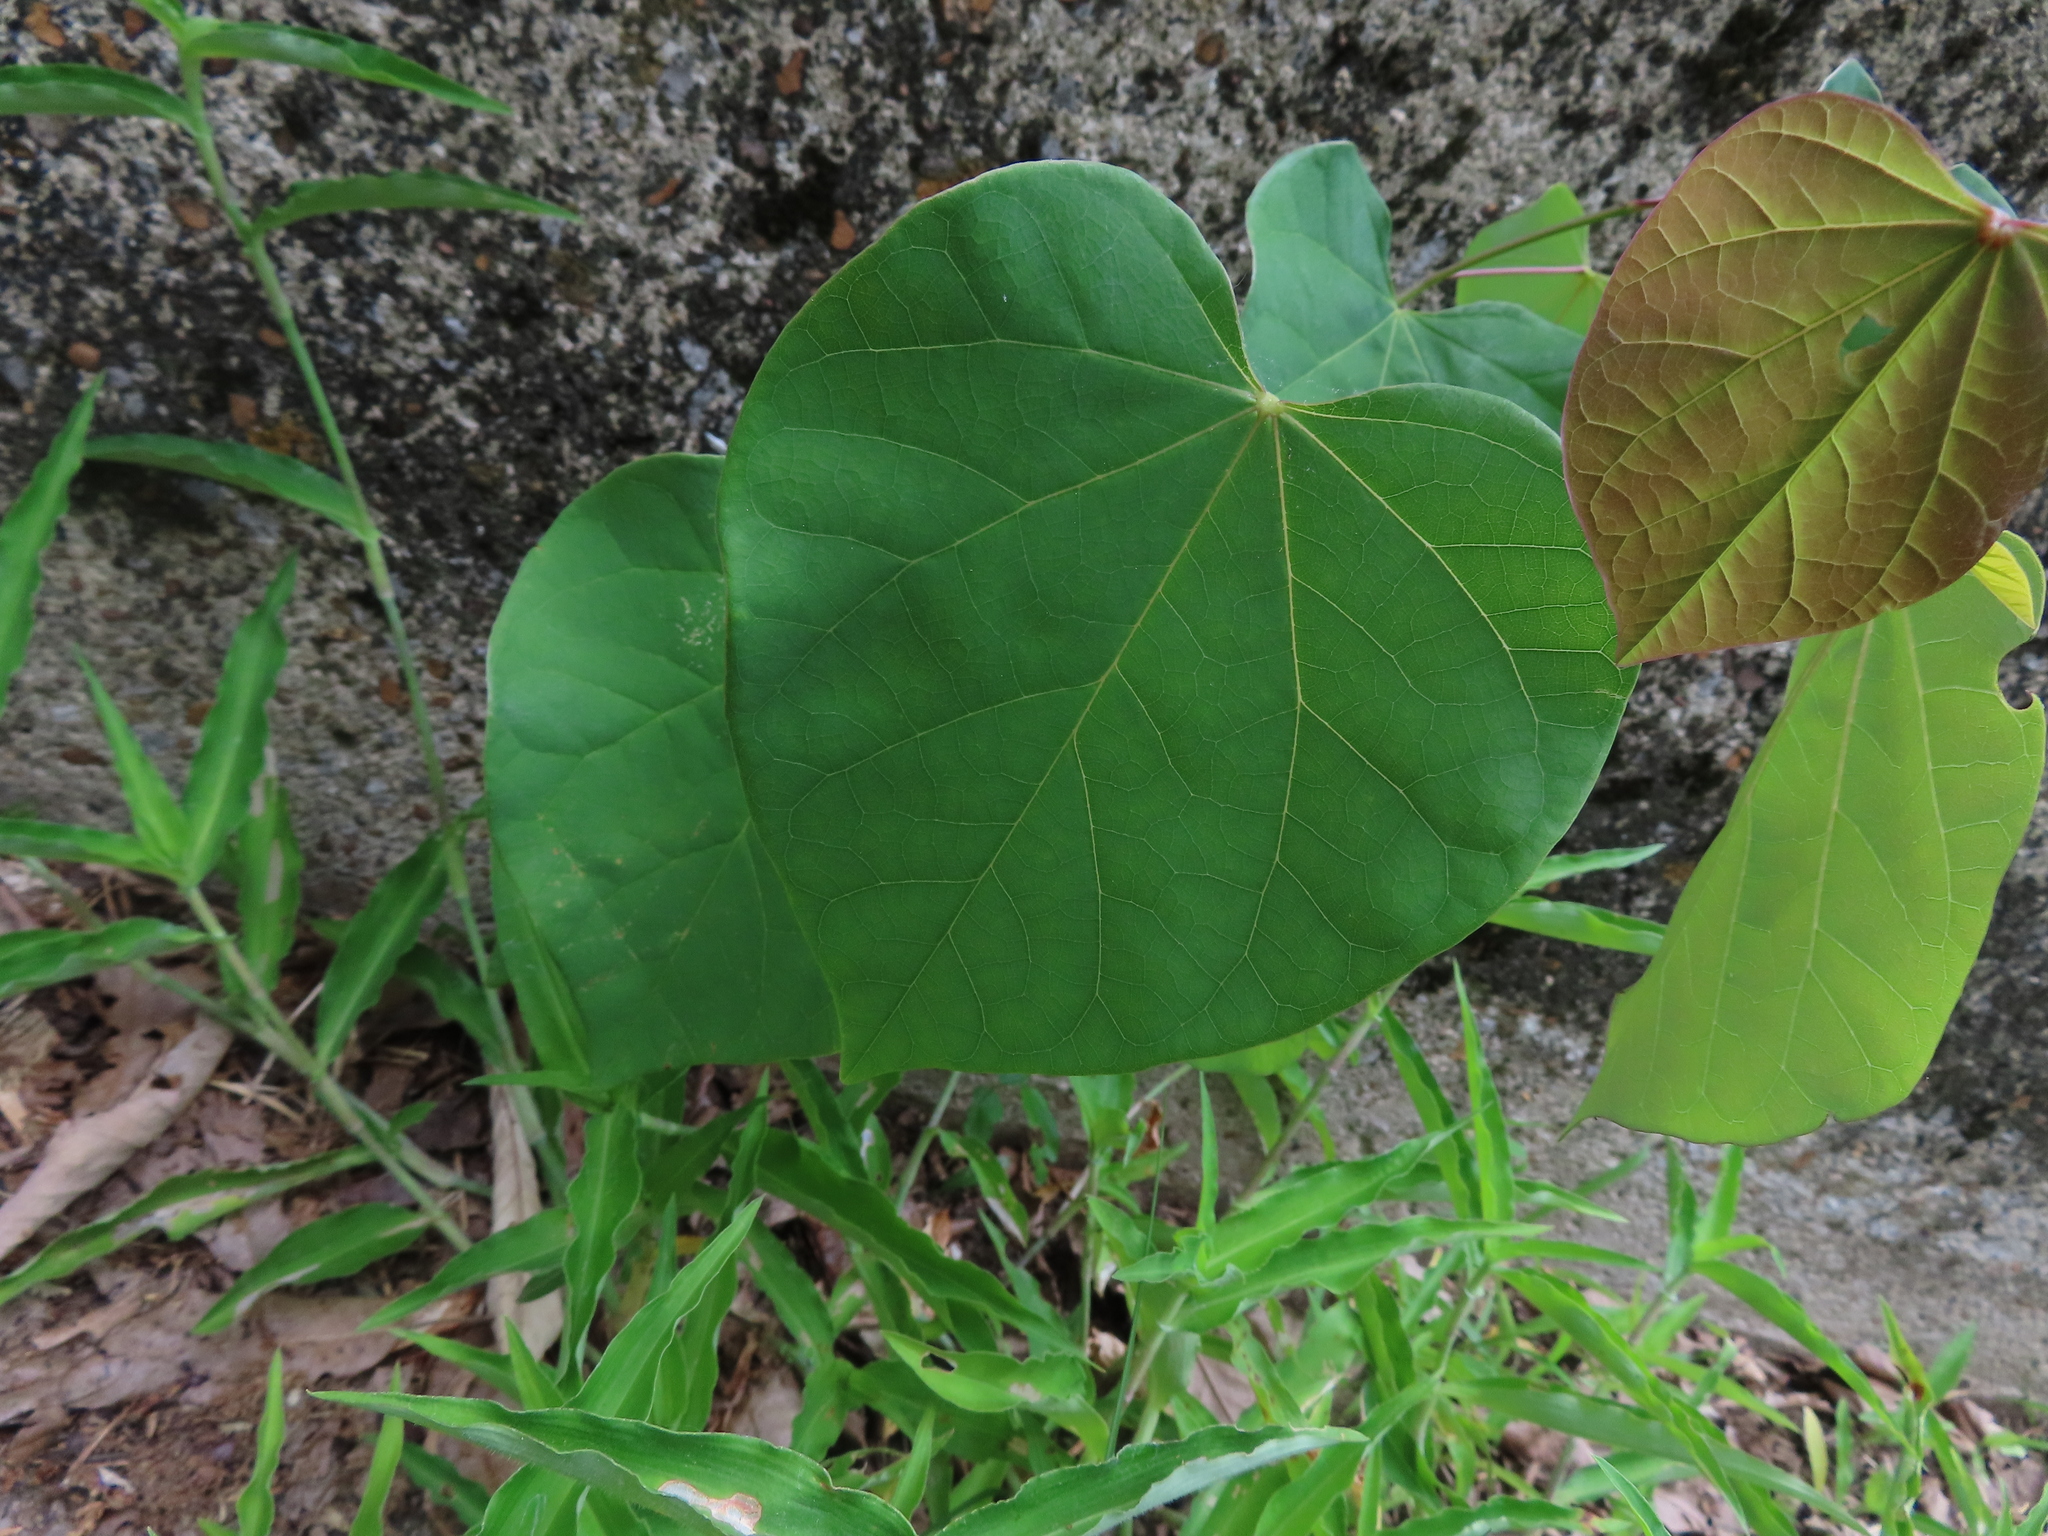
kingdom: Plantae
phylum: Tracheophyta
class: Magnoliopsida
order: Fabales
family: Fabaceae
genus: Cercis
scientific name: Cercis canadensis
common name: Eastern redbud
